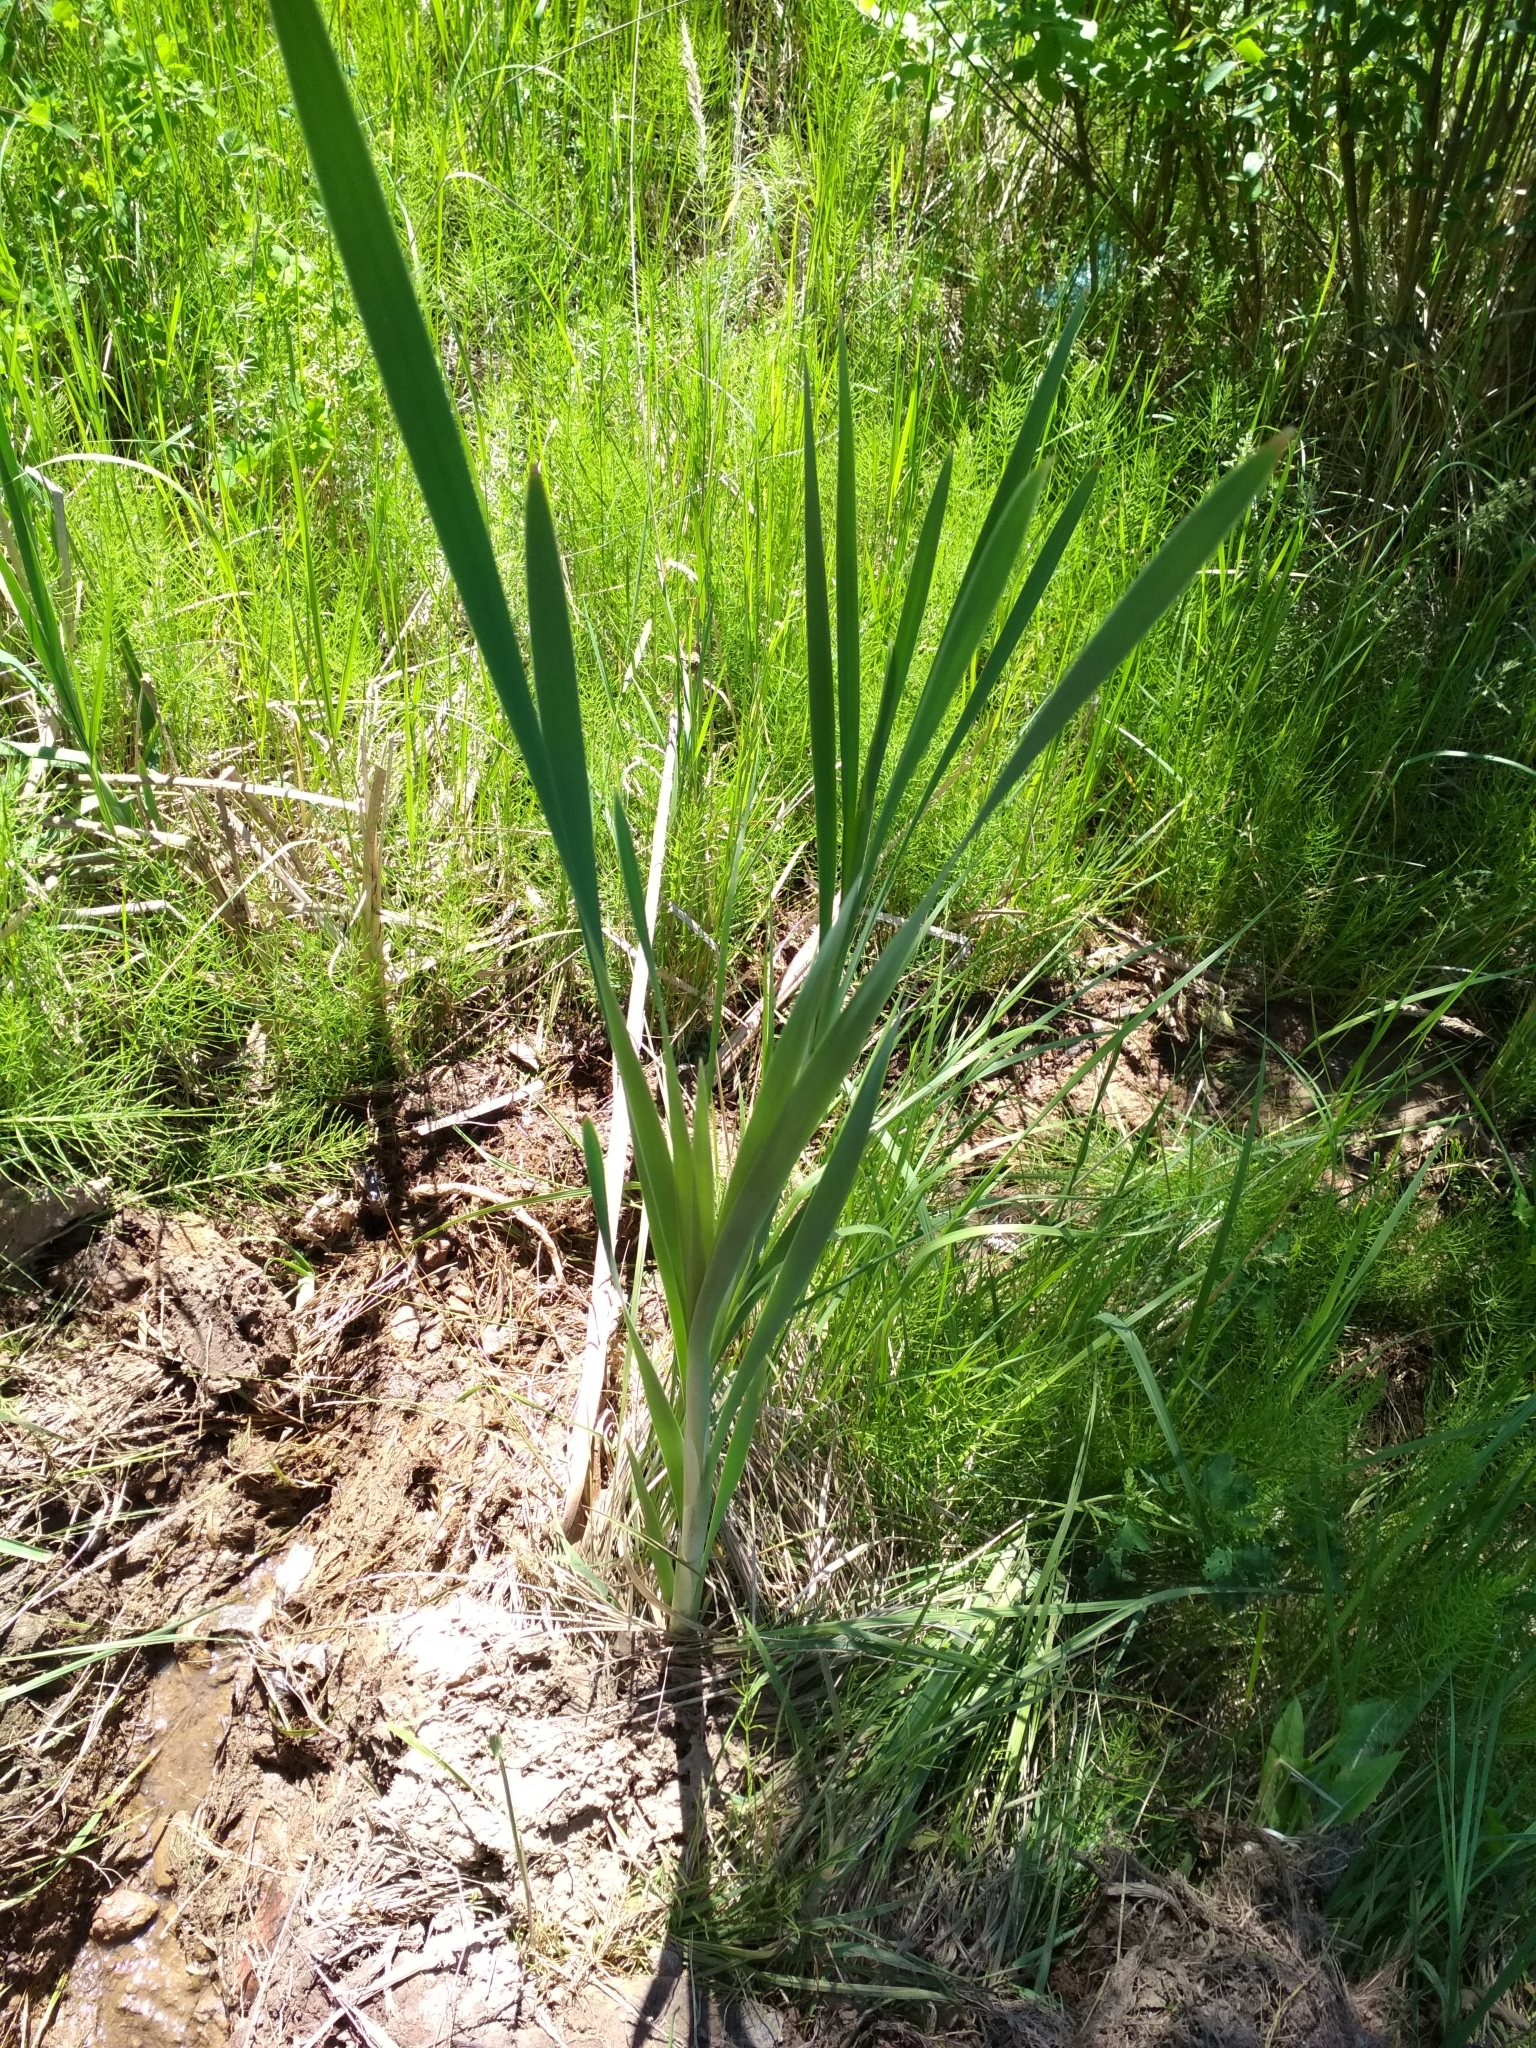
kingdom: Plantae
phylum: Tracheophyta
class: Liliopsida
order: Poales
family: Typhaceae
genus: Typha
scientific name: Typha latifolia
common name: Broadleaf cattail
